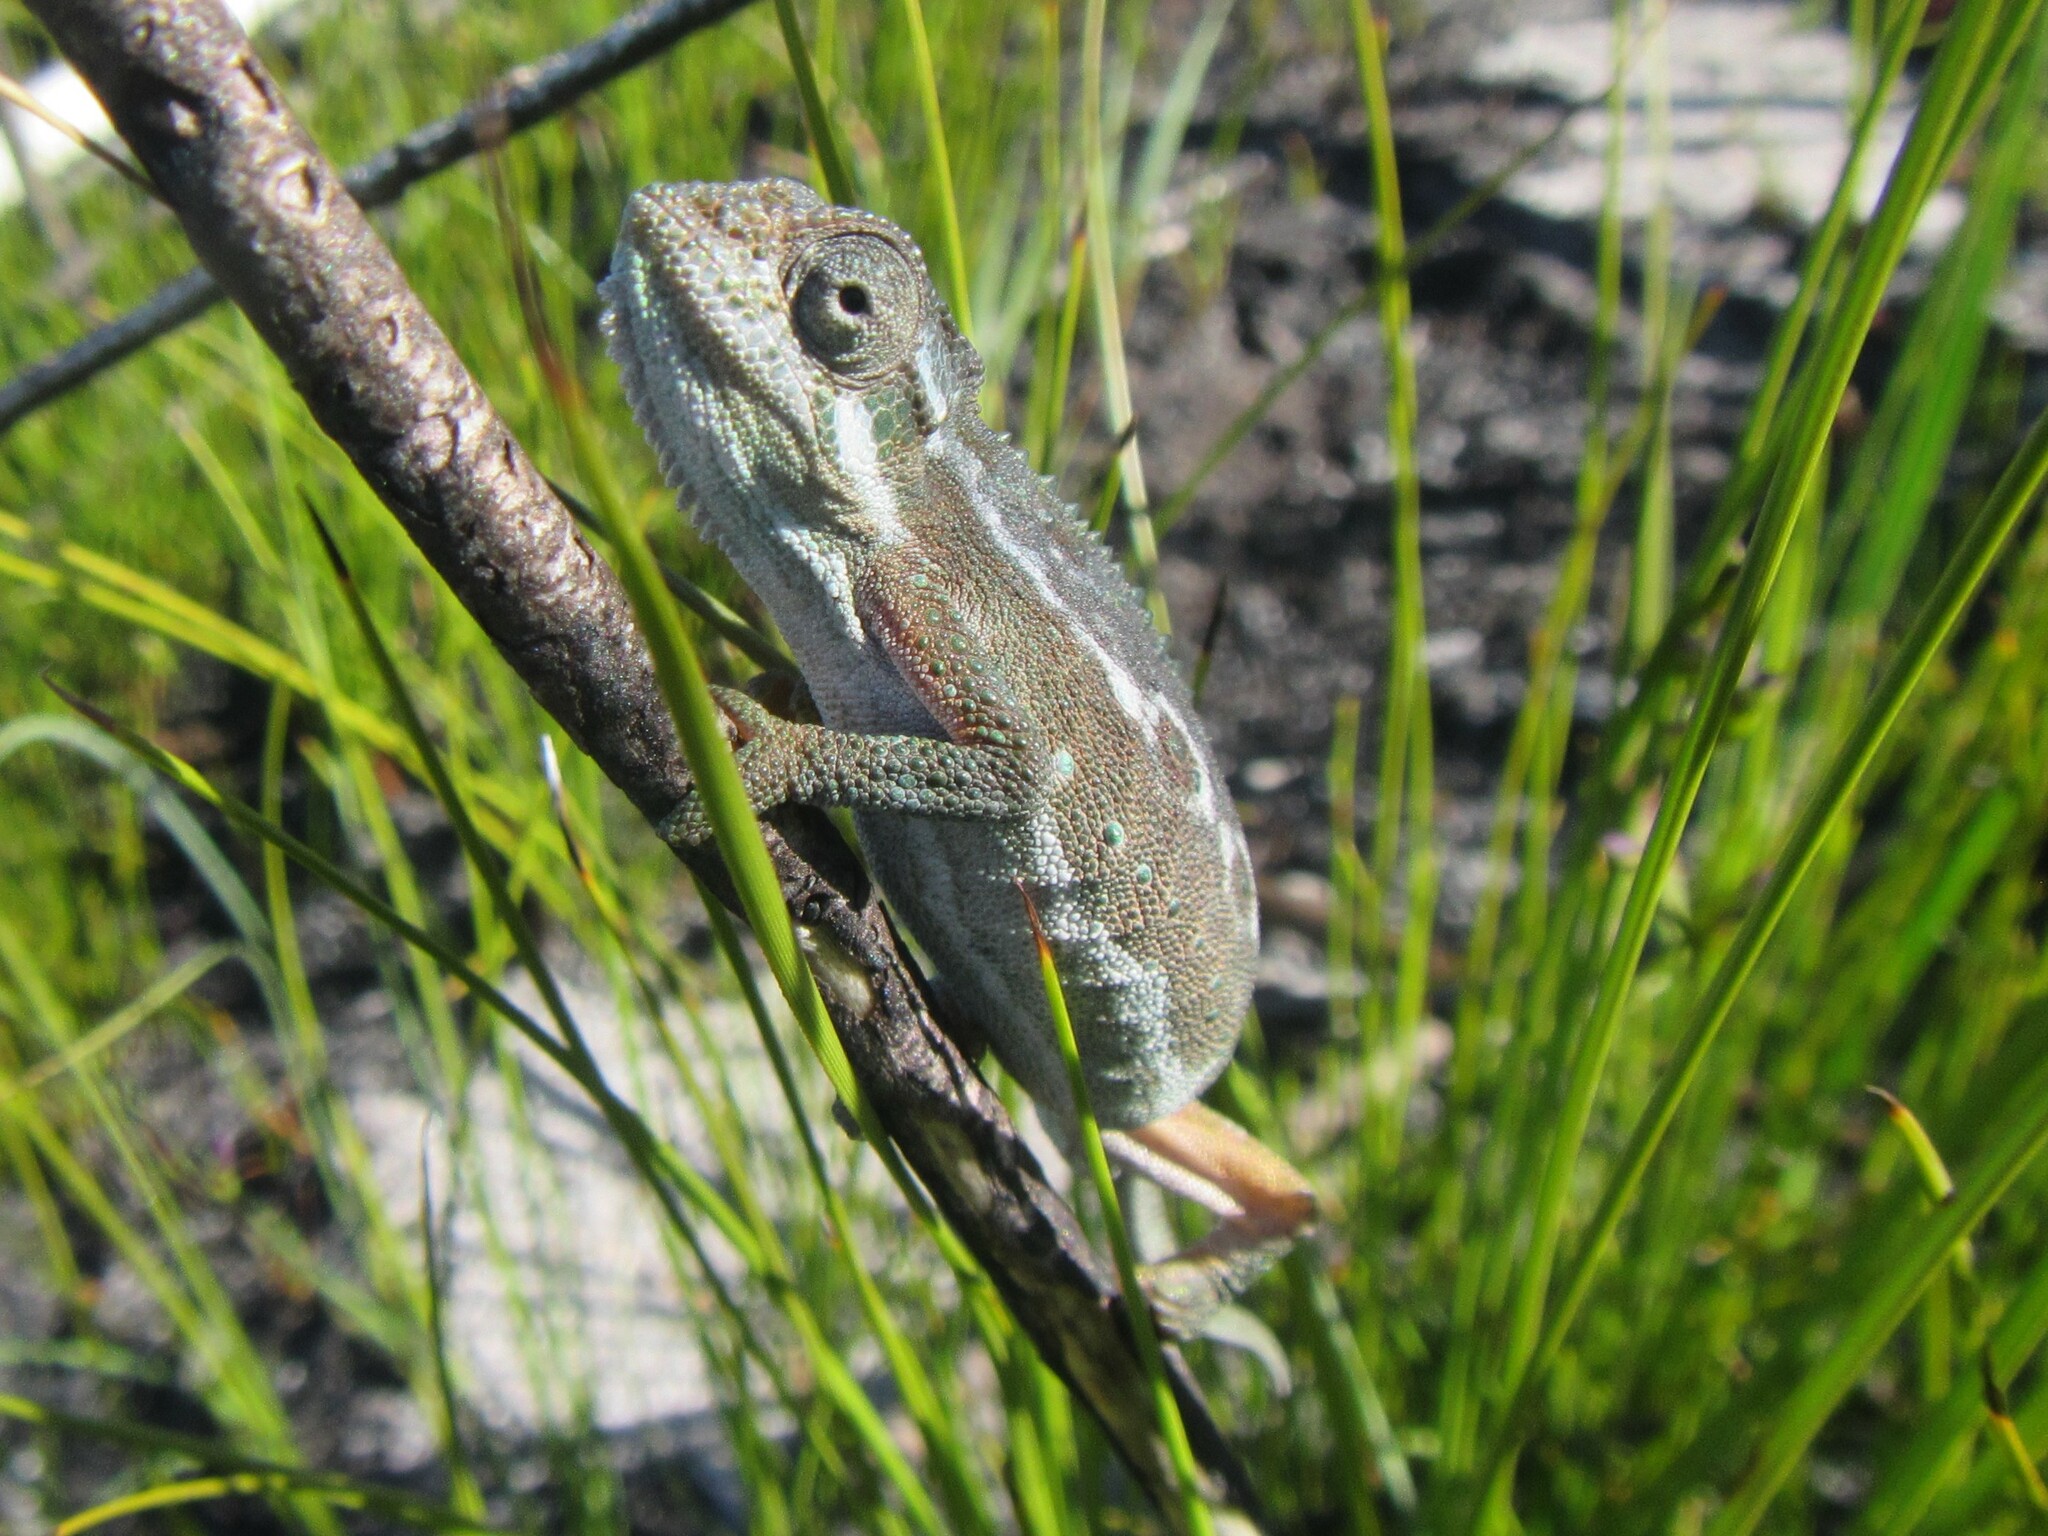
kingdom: Animalia
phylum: Chordata
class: Squamata
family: Chamaeleonidae
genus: Bradypodion
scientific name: Bradypodion pumilum
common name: Cape dwarf chameleon
